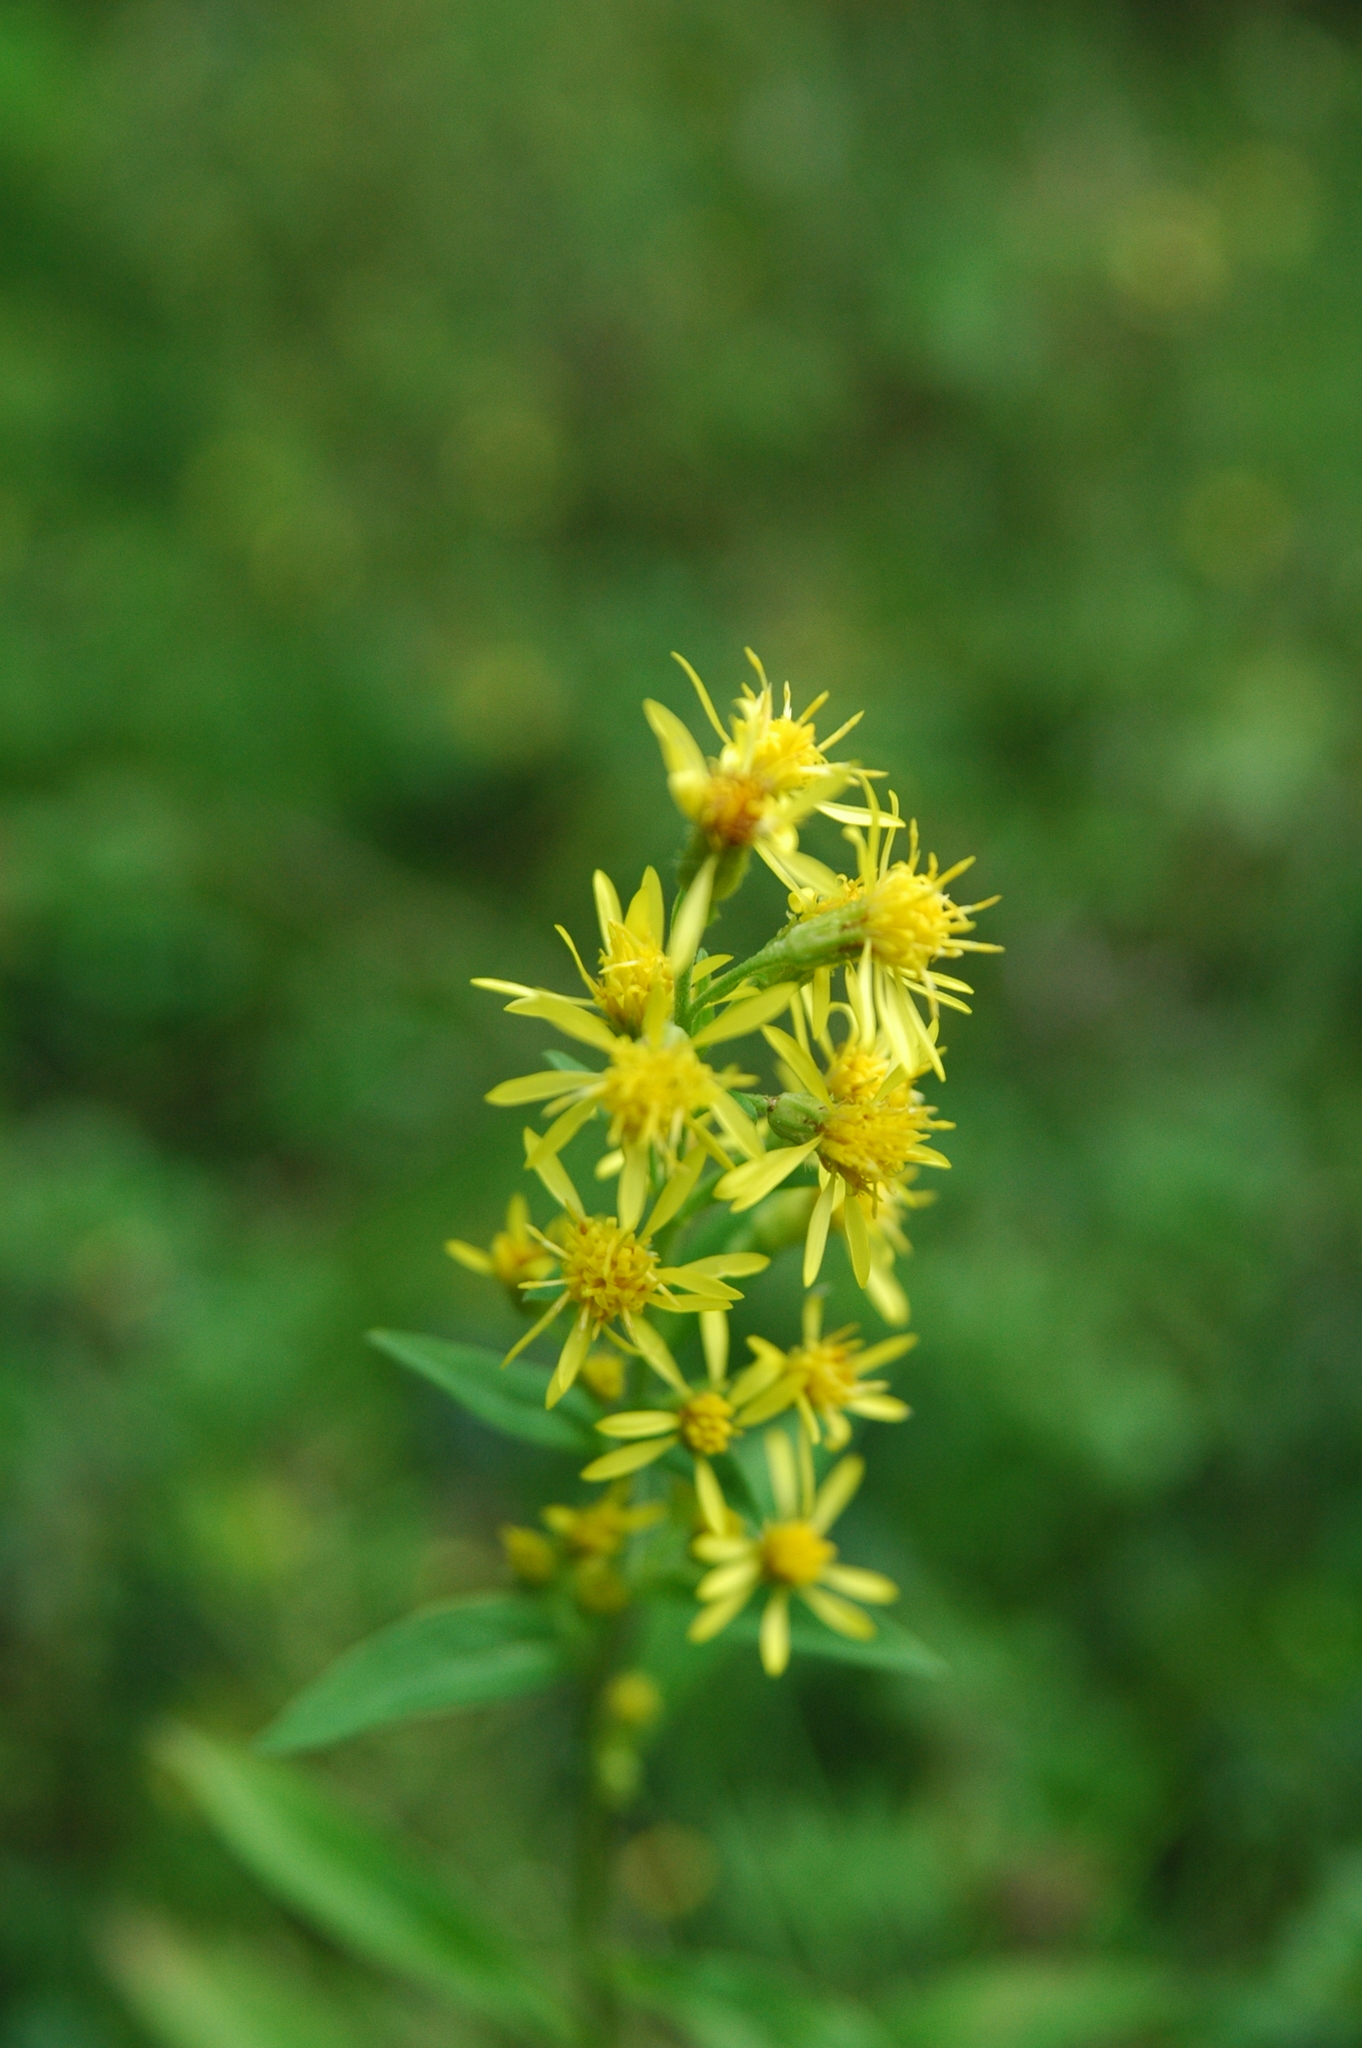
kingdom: Plantae
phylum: Tracheophyta
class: Magnoliopsida
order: Asterales
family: Asteraceae
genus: Solidago
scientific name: Solidago virgaurea
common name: Goldenrod
